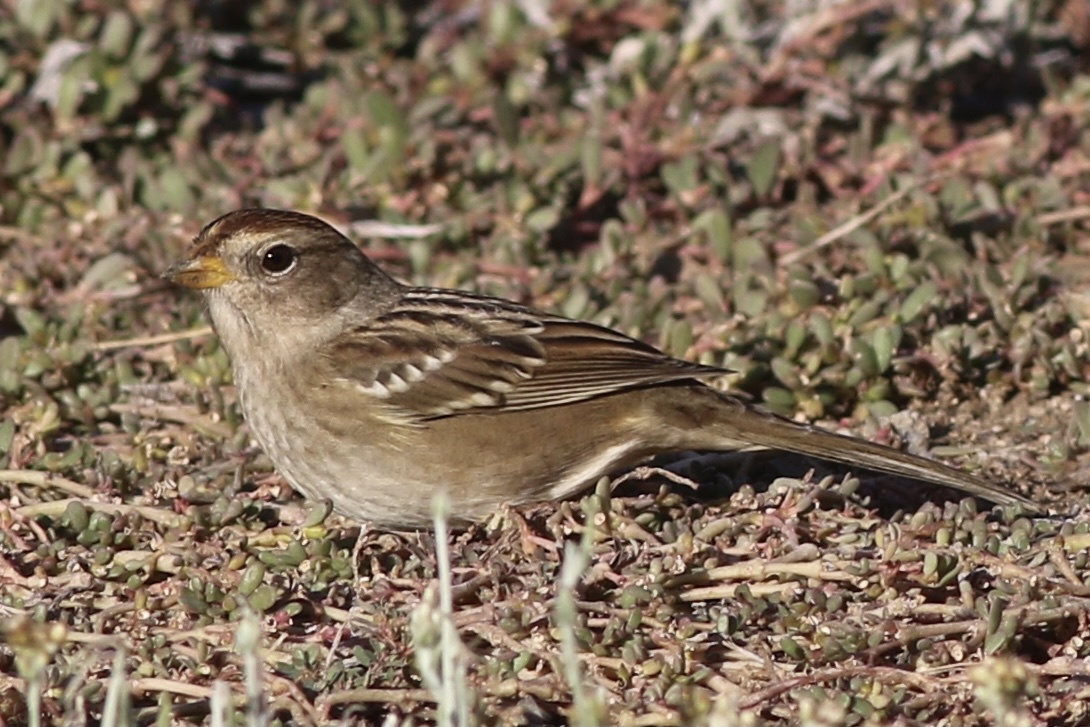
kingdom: Animalia
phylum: Chordata
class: Aves
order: Passeriformes
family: Passerellidae
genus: Zonotrichia
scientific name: Zonotrichia leucophrys
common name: White-crowned sparrow
